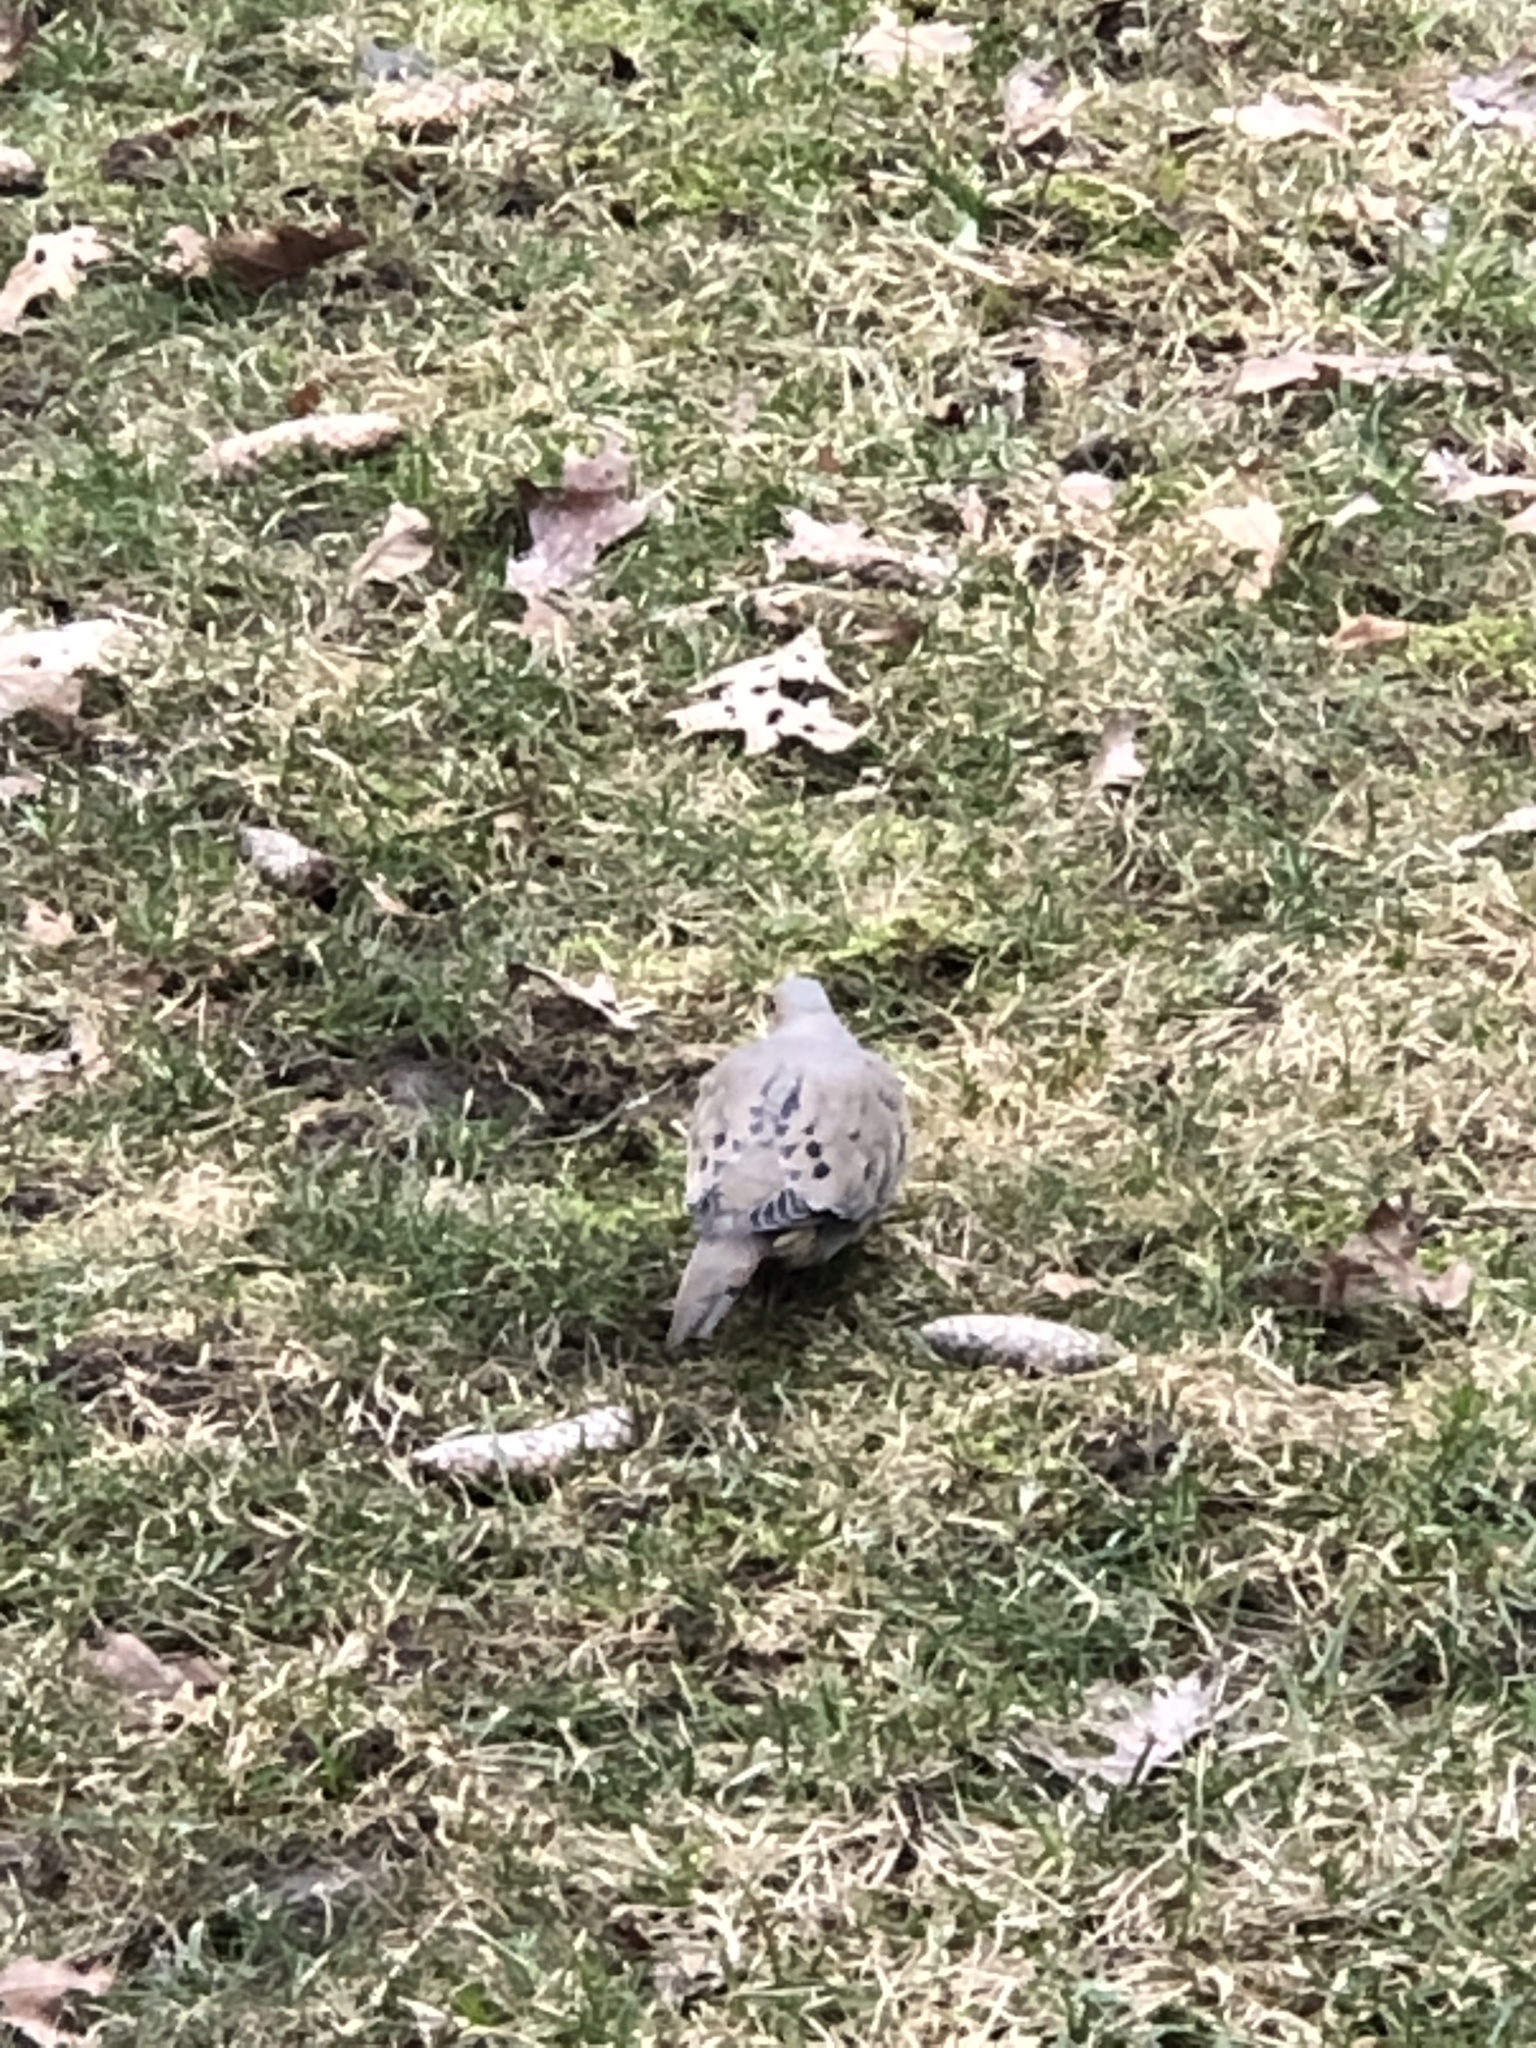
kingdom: Animalia
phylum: Chordata
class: Aves
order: Columbiformes
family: Columbidae
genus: Zenaida
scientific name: Zenaida macroura
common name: Mourning dove
